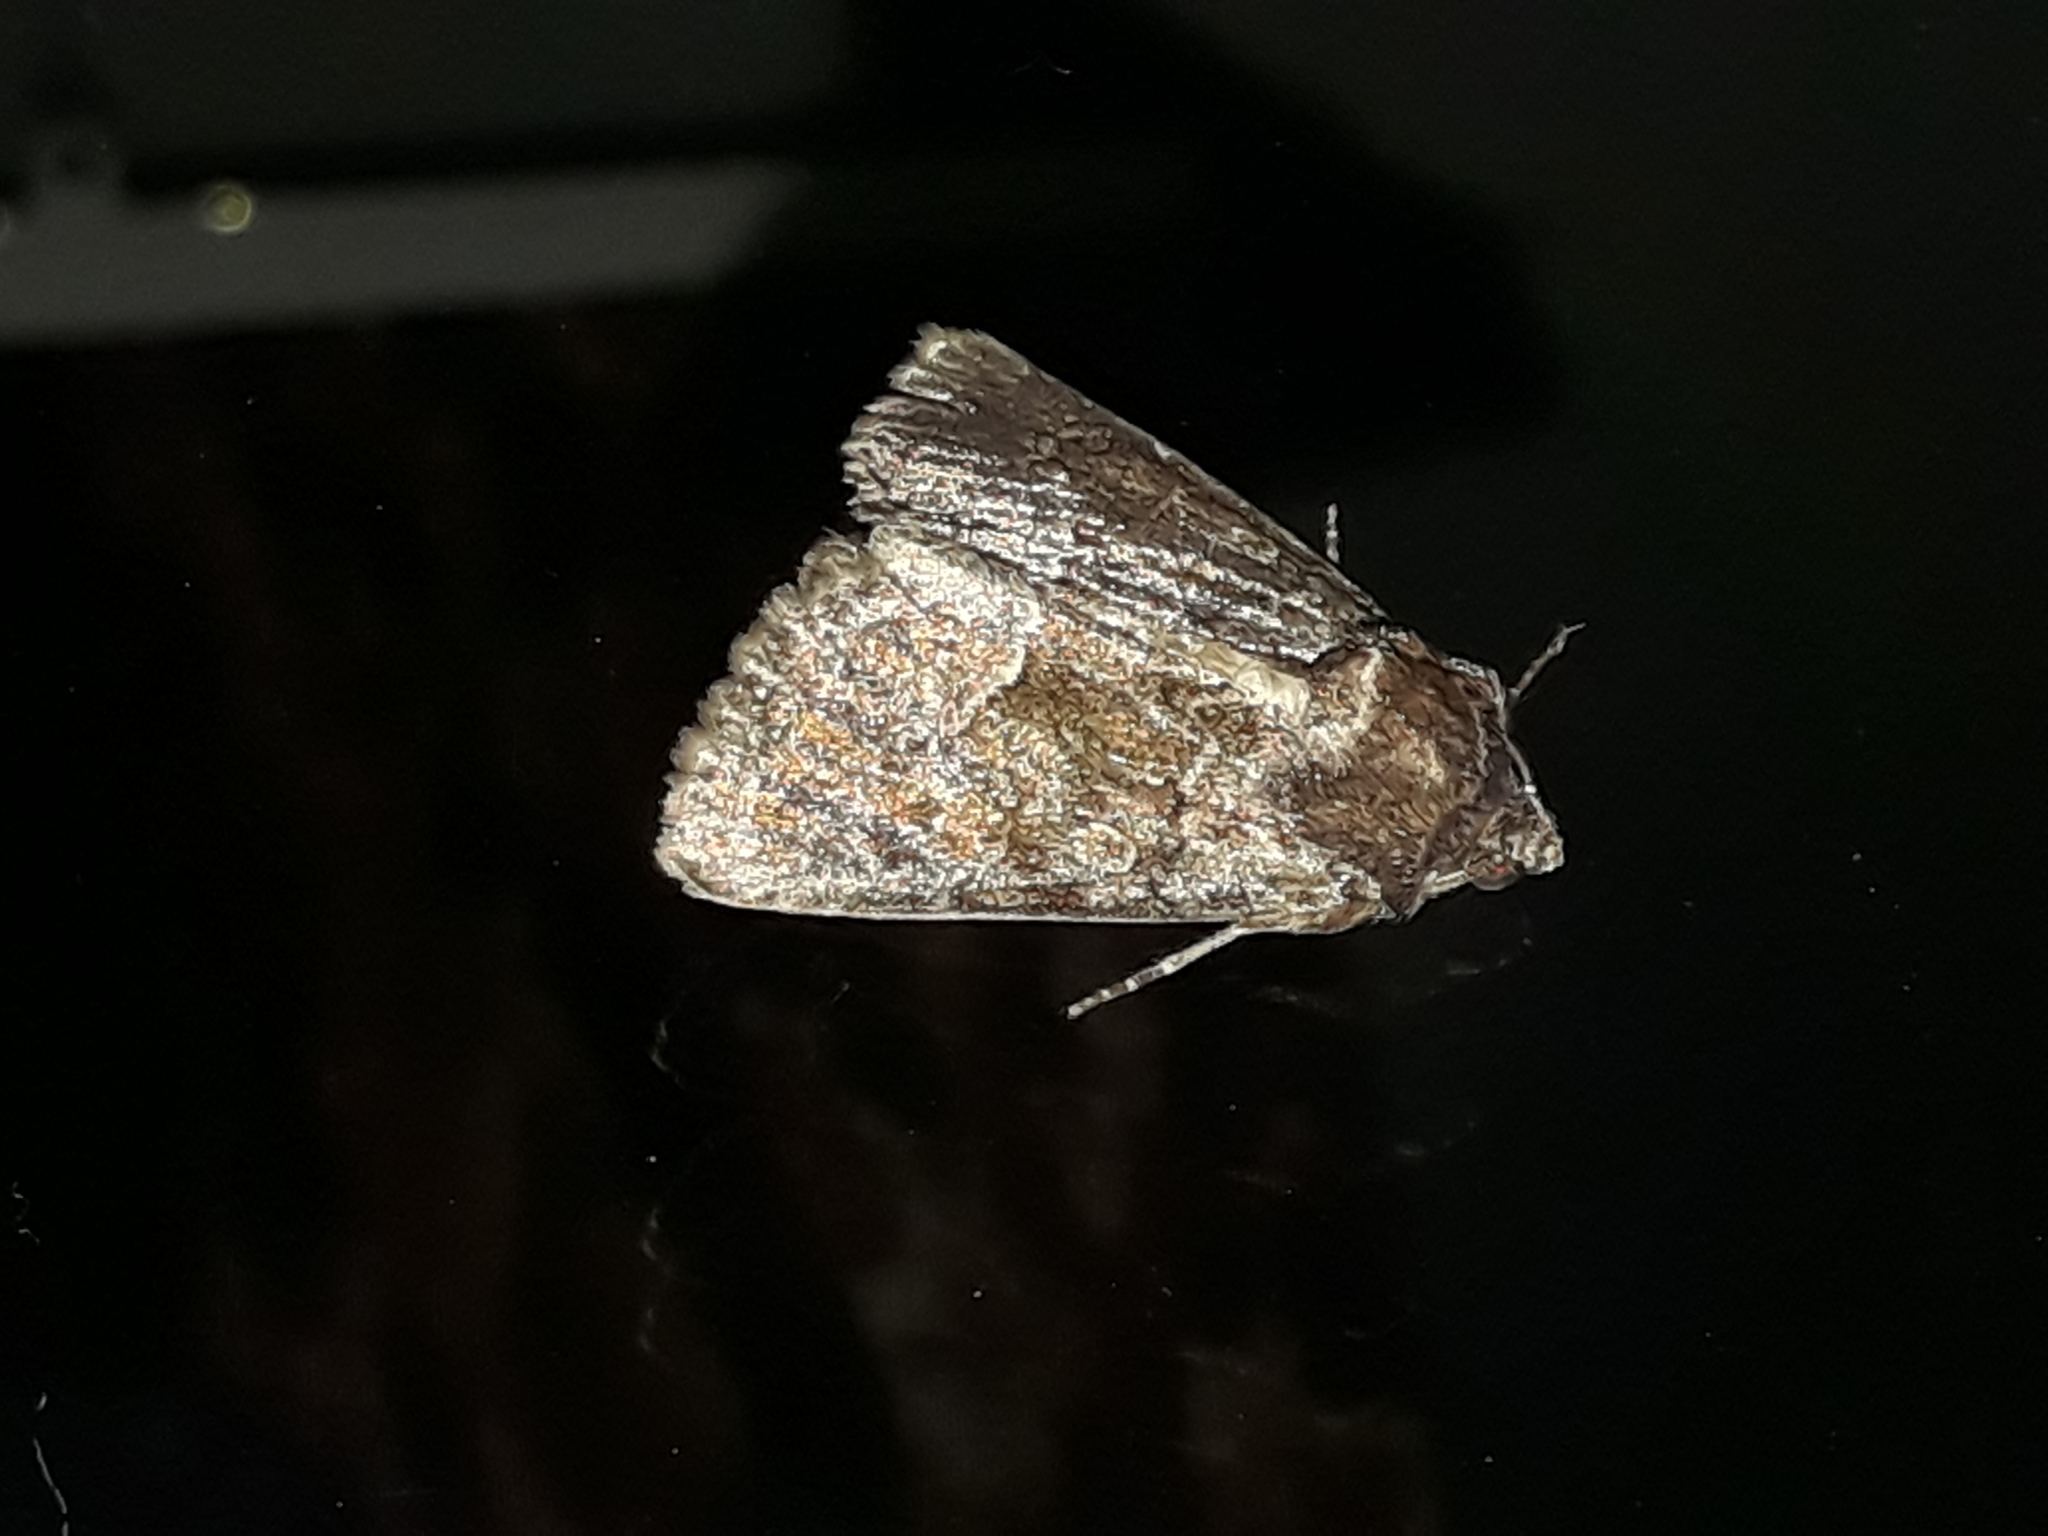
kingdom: Animalia
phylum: Arthropoda
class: Insecta
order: Lepidoptera
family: Noctuidae
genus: Thalpophila
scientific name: Thalpophila matura
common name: Straw underwing
